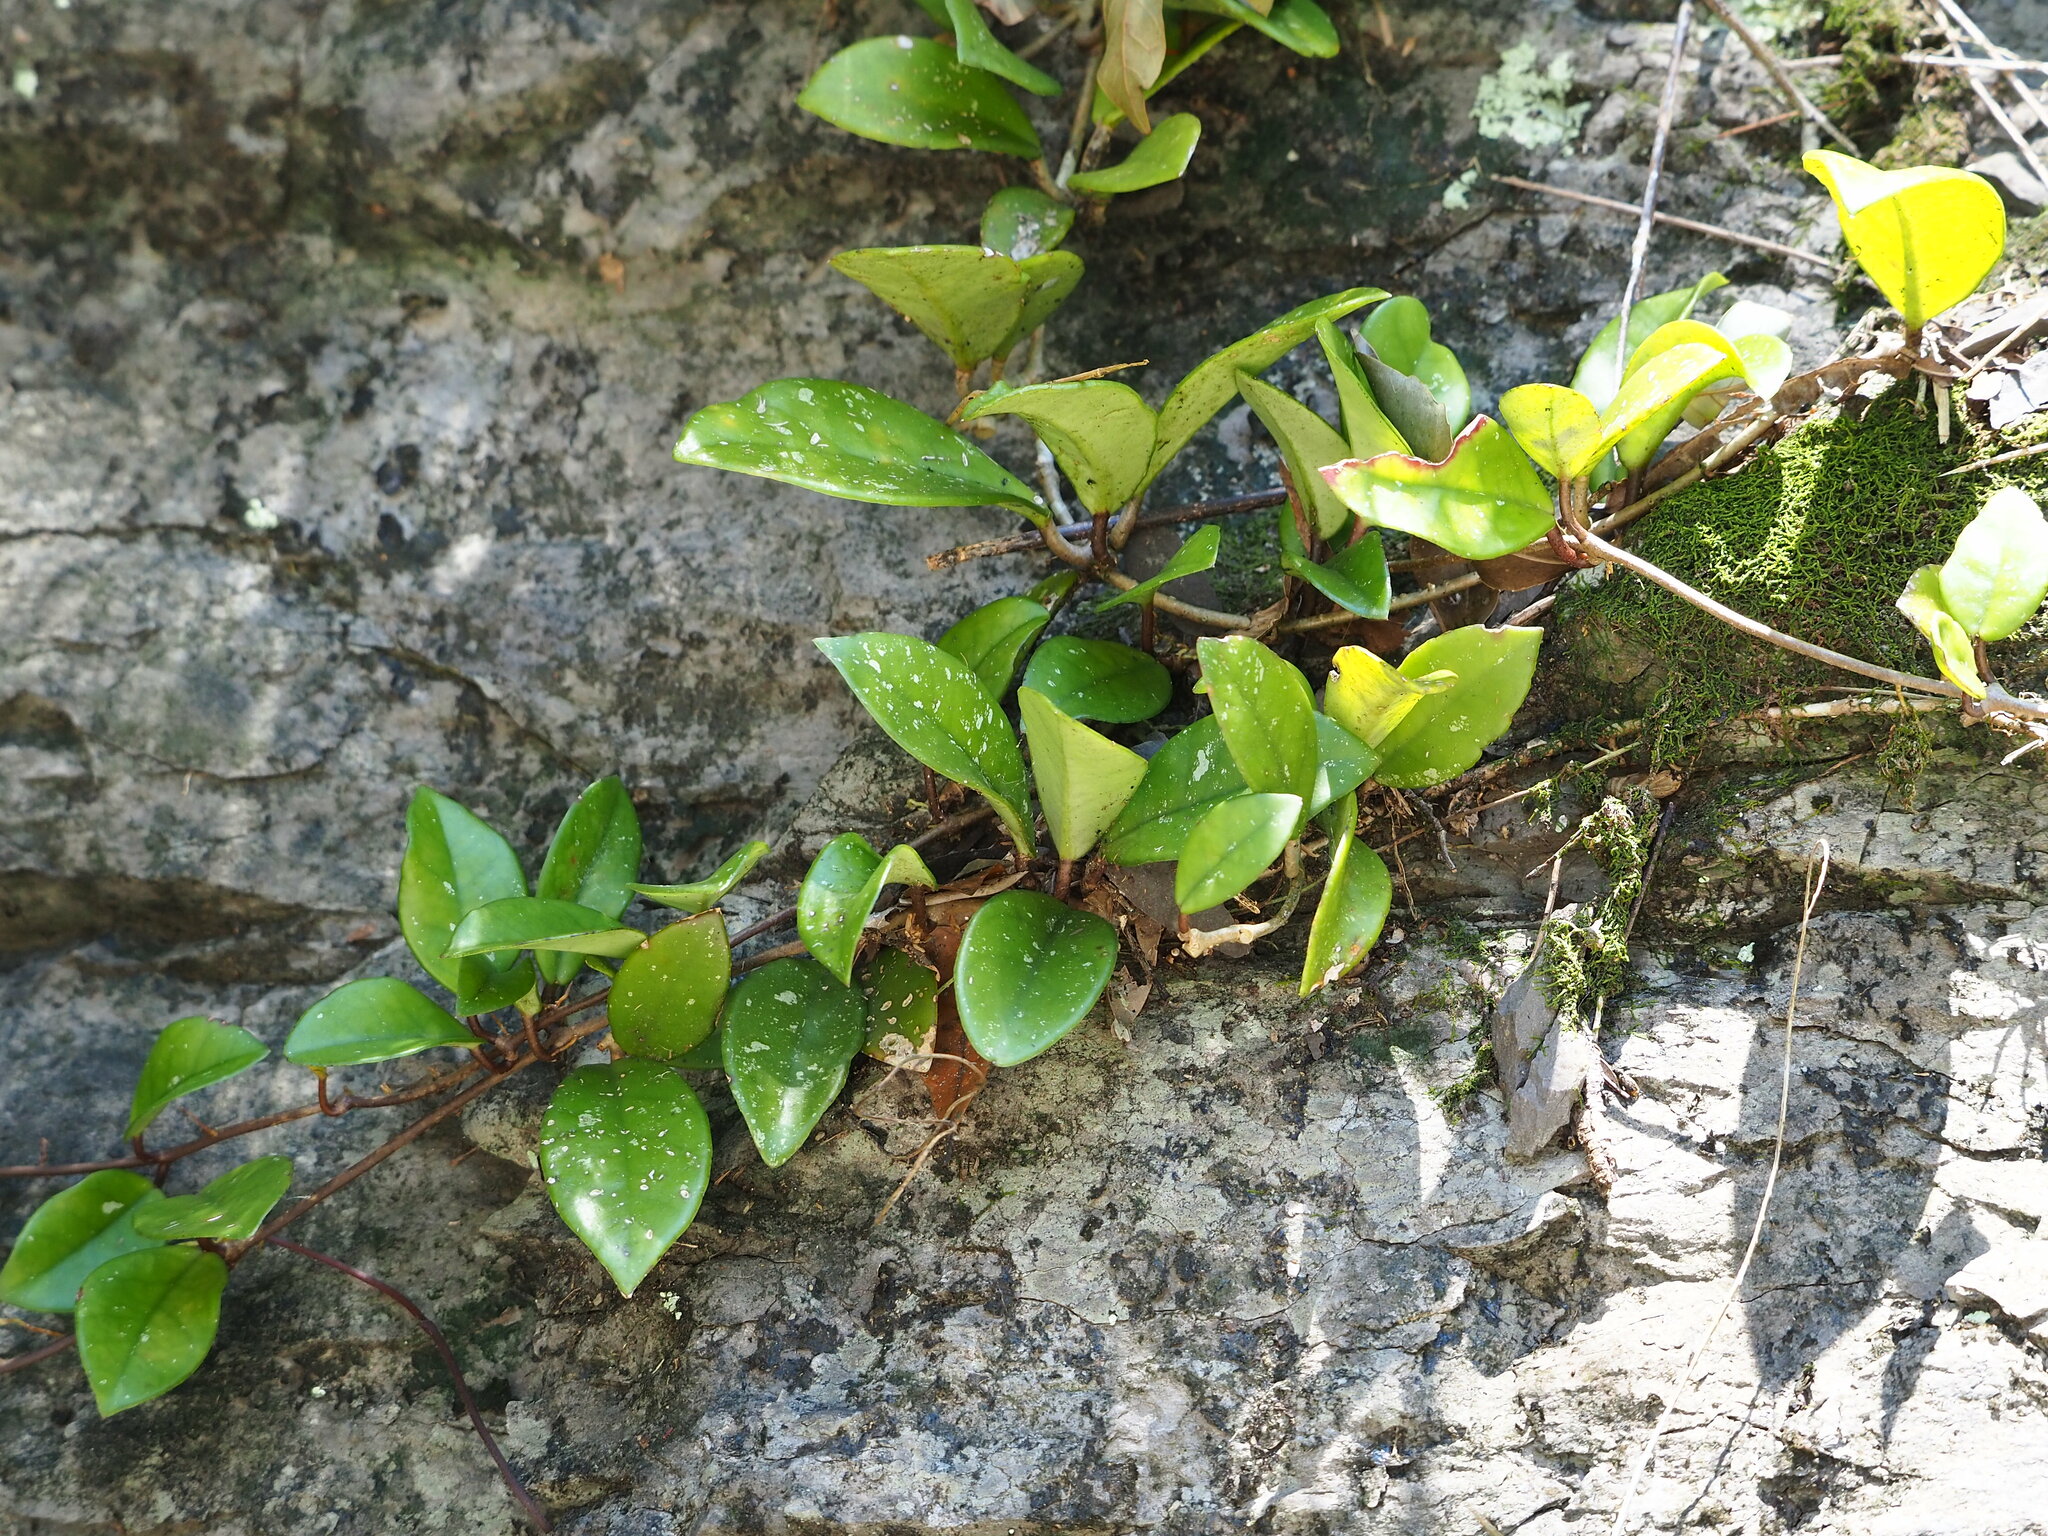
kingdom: Plantae
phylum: Tracheophyta
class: Magnoliopsida
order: Gentianales
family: Apocynaceae
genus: Hoya
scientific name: Hoya carnosa
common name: Honeyplant
